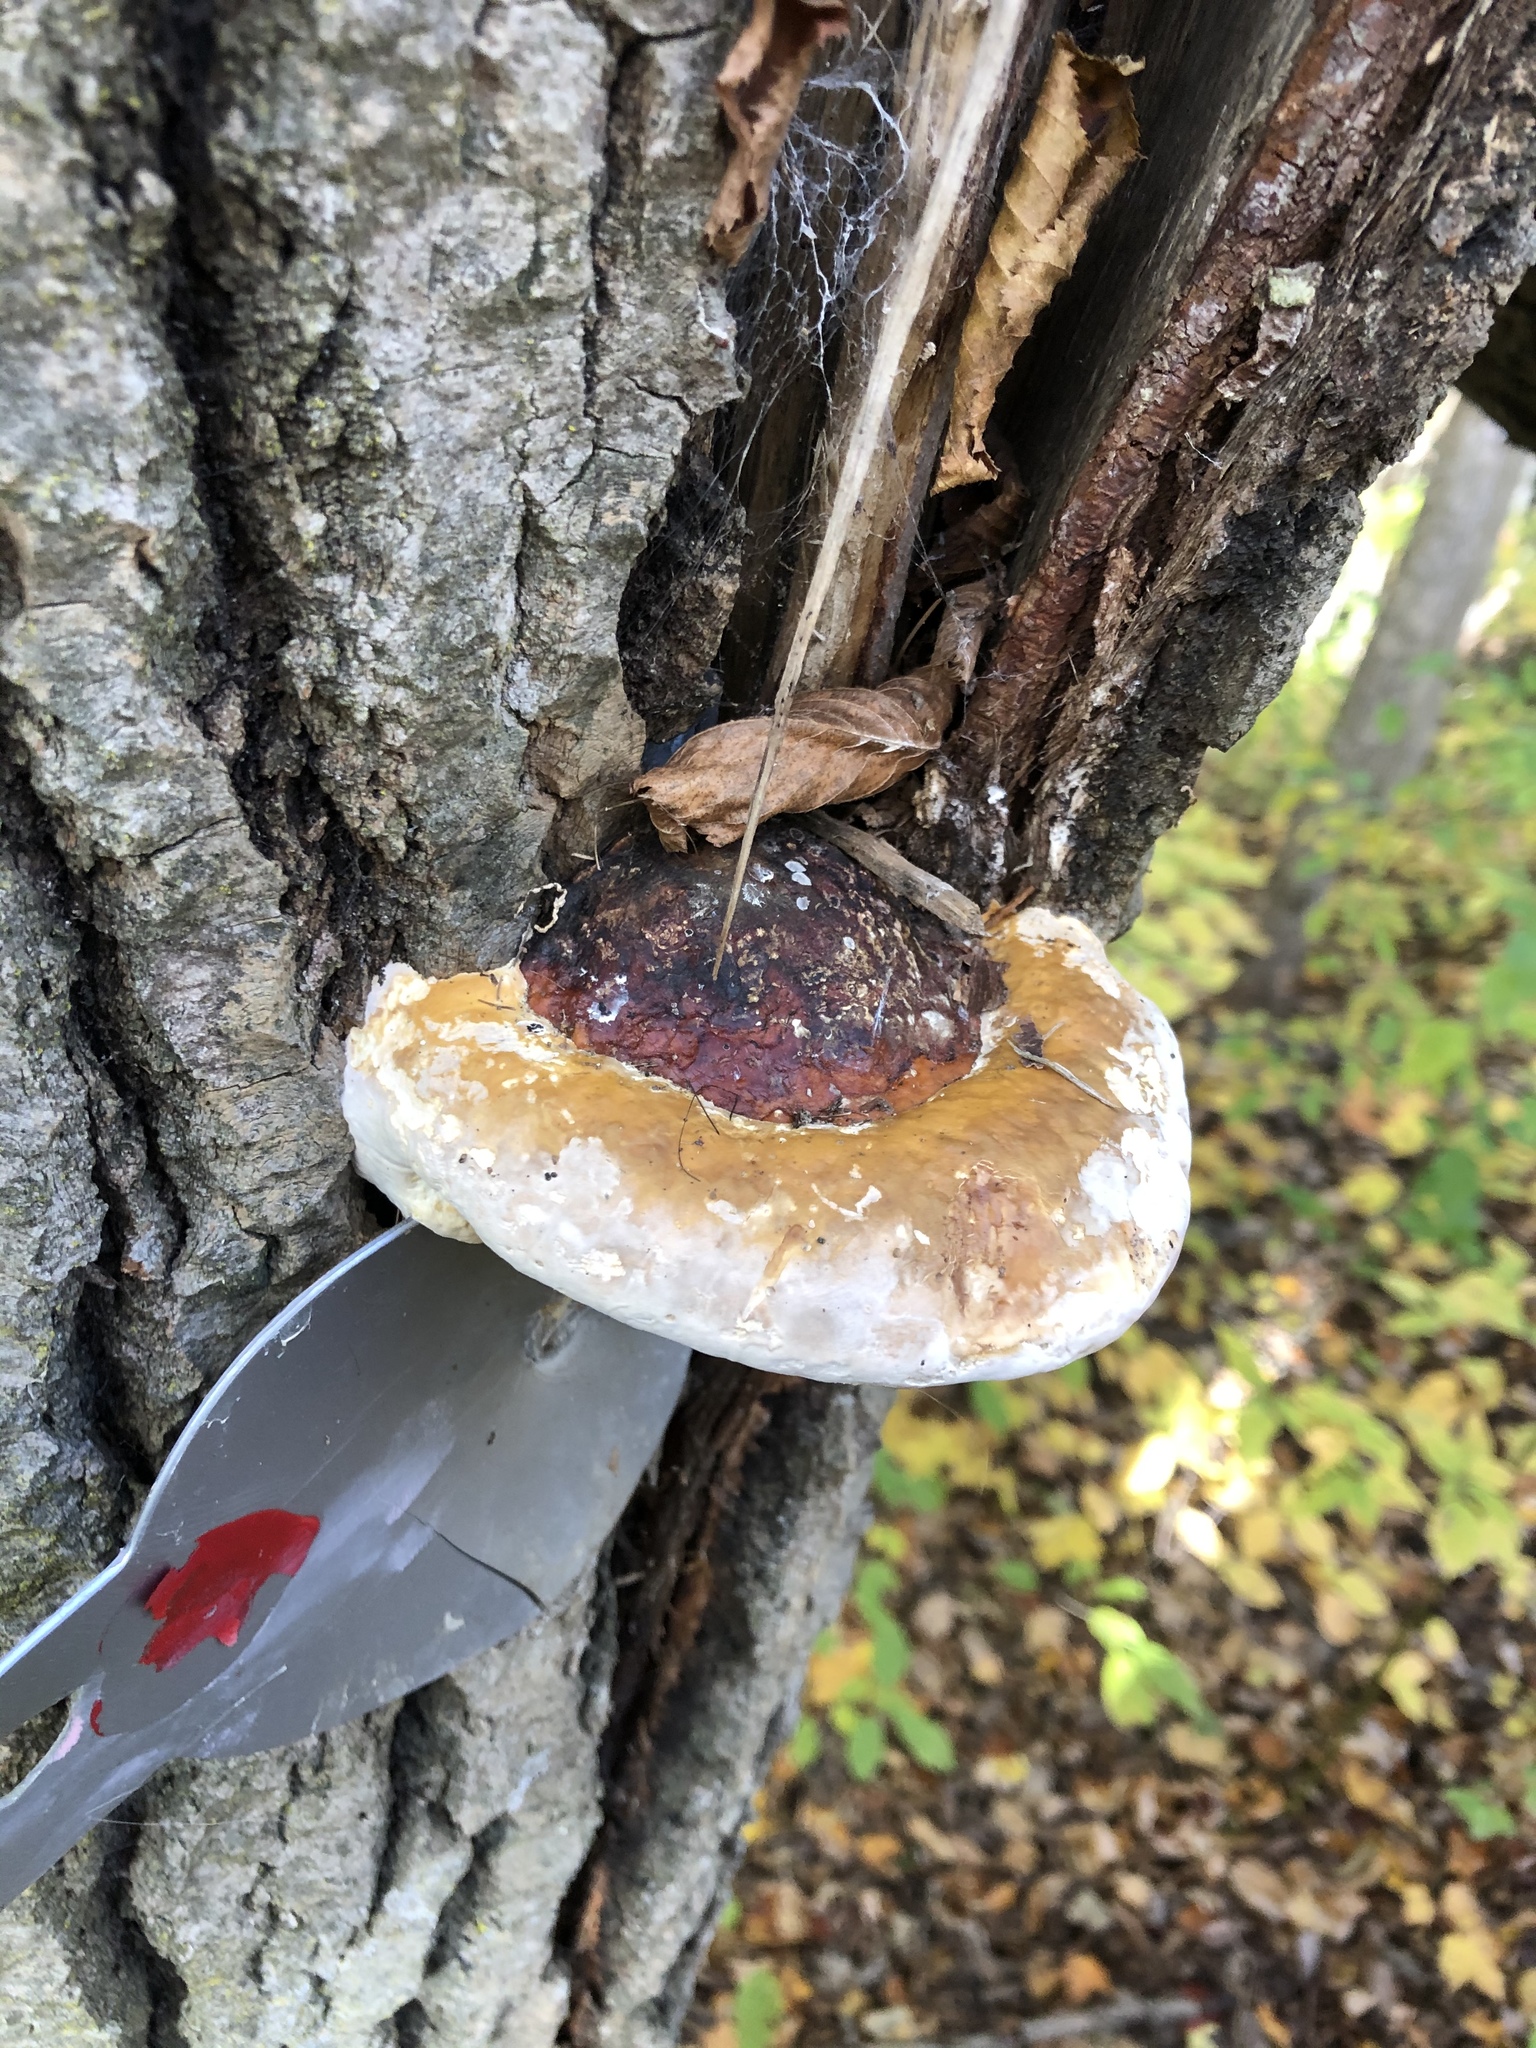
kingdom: Fungi
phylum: Basidiomycota
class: Agaricomycetes
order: Polyporales
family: Fomitopsidaceae
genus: Fomitopsis
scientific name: Fomitopsis mounceae
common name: Northern red belt
